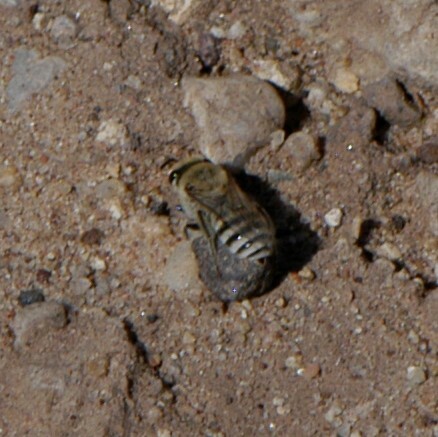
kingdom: Animalia
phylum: Arthropoda
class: Insecta
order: Hymenoptera
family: Colletidae
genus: Colletes
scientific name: Colletes
